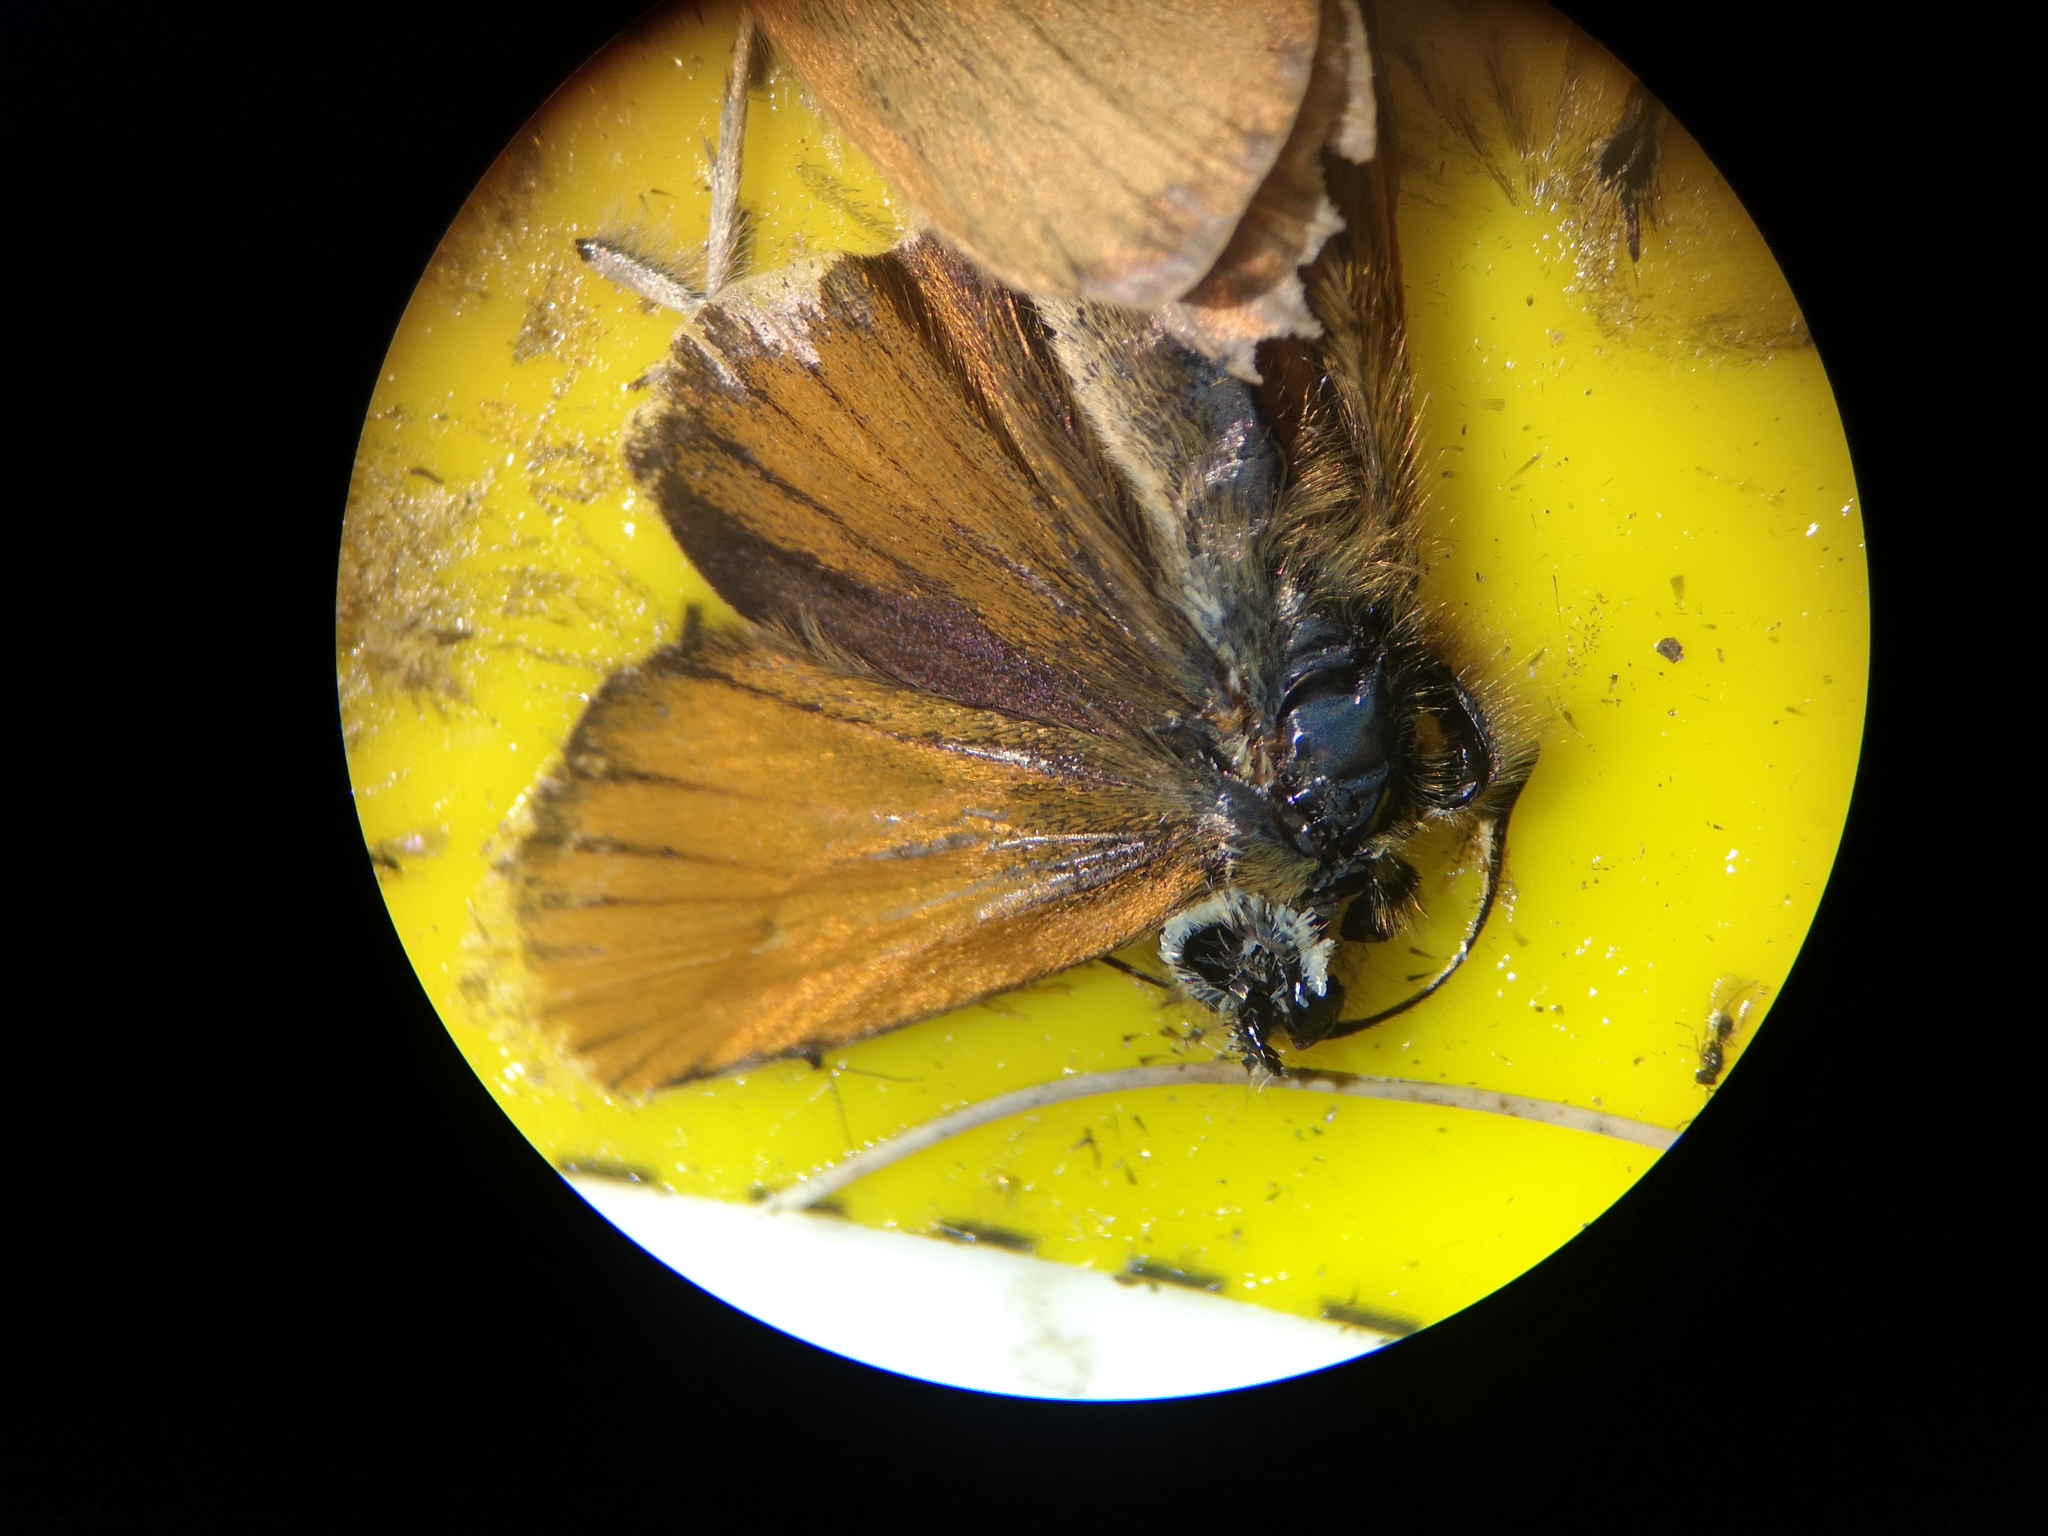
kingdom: Animalia
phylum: Arthropoda
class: Insecta
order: Lepidoptera
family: Hesperiidae
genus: Thymelicus
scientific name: Thymelicus lineola
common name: Essex skipper
